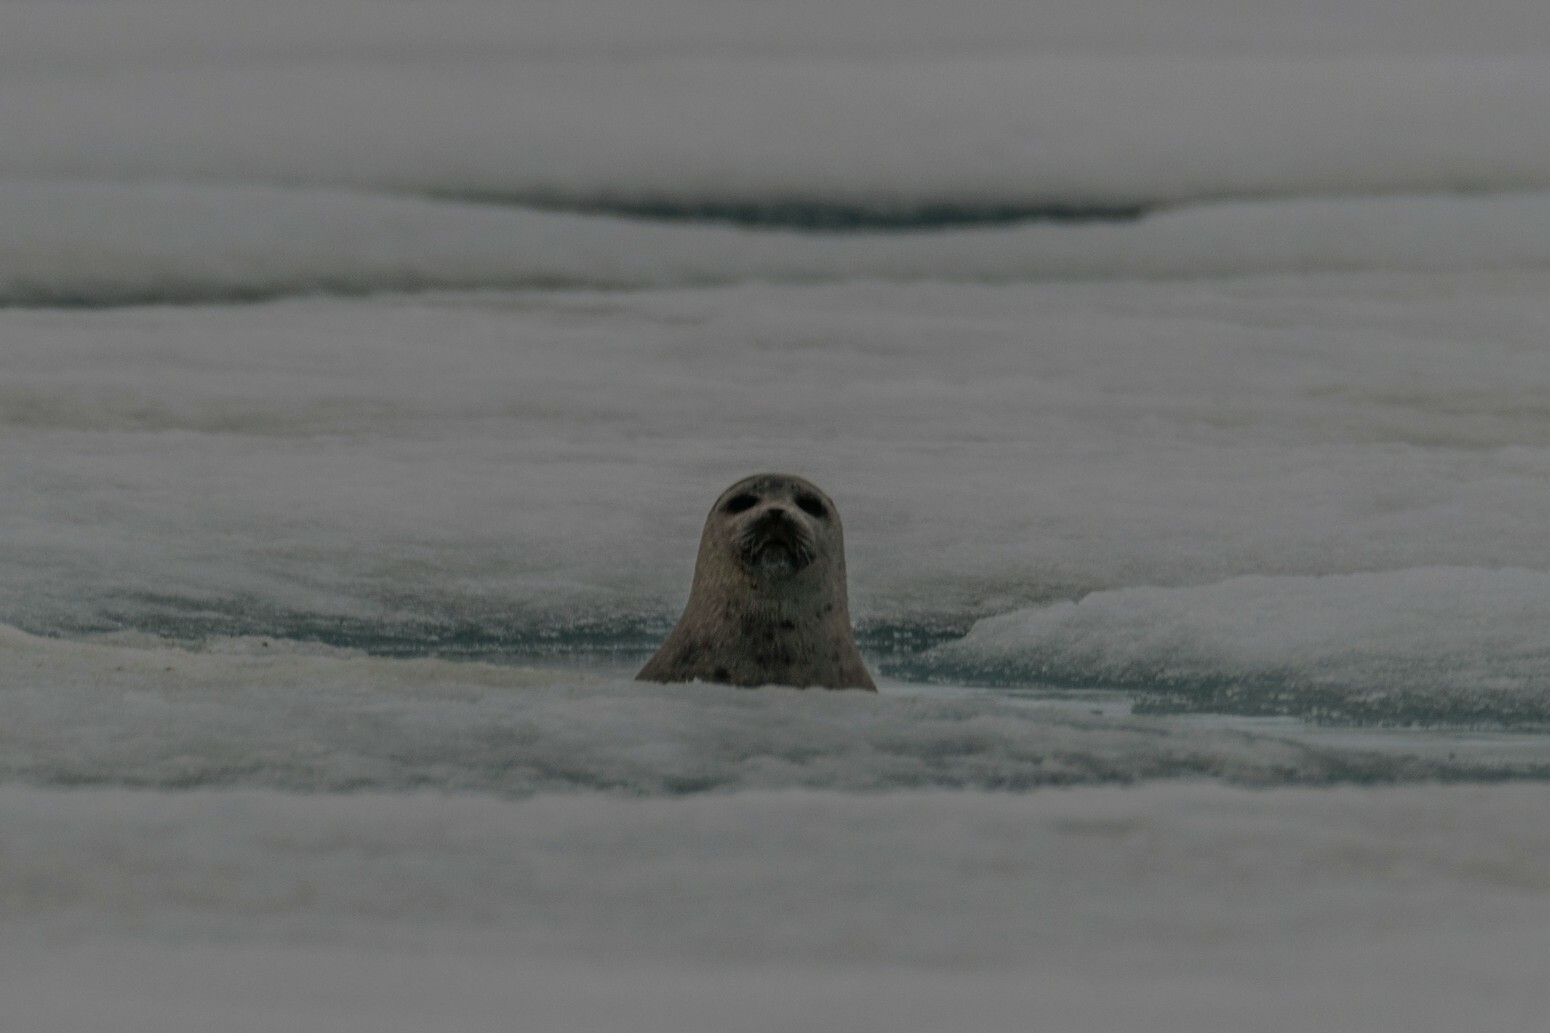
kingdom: Animalia
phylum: Chordata
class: Mammalia
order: Carnivora
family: Phocidae
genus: Pusa
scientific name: Pusa hispida
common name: Ringed seal
